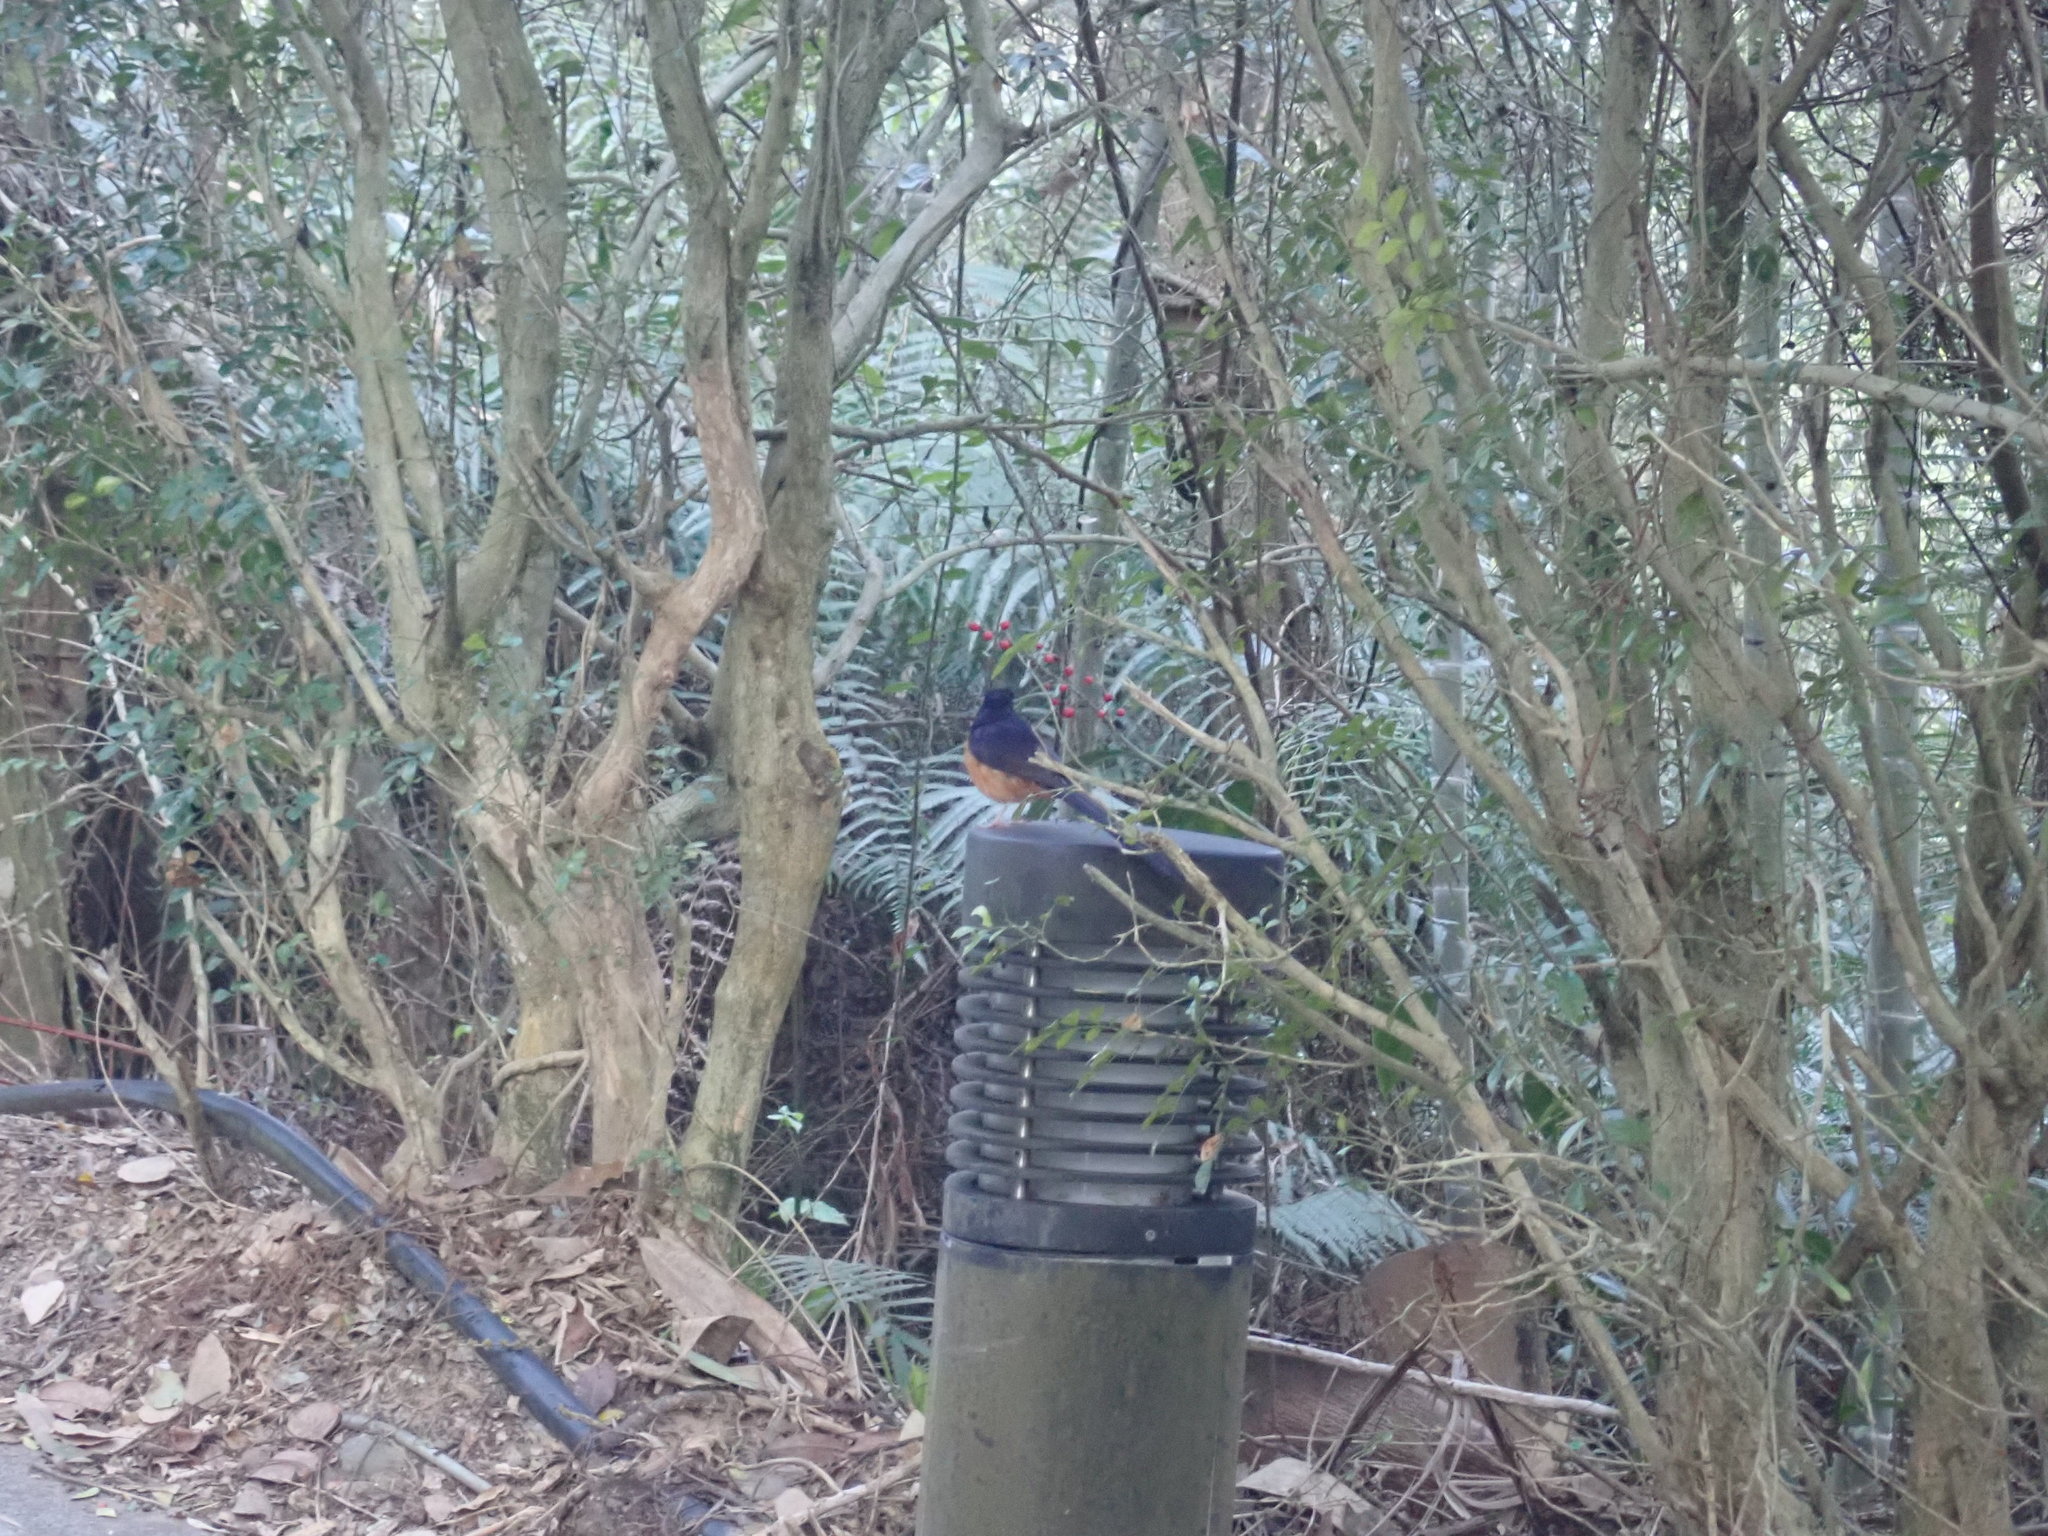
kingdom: Animalia
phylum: Chordata
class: Aves
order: Passeriformes
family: Muscicapidae
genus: Copsychus
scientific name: Copsychus malabaricus
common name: White-rumped shama
